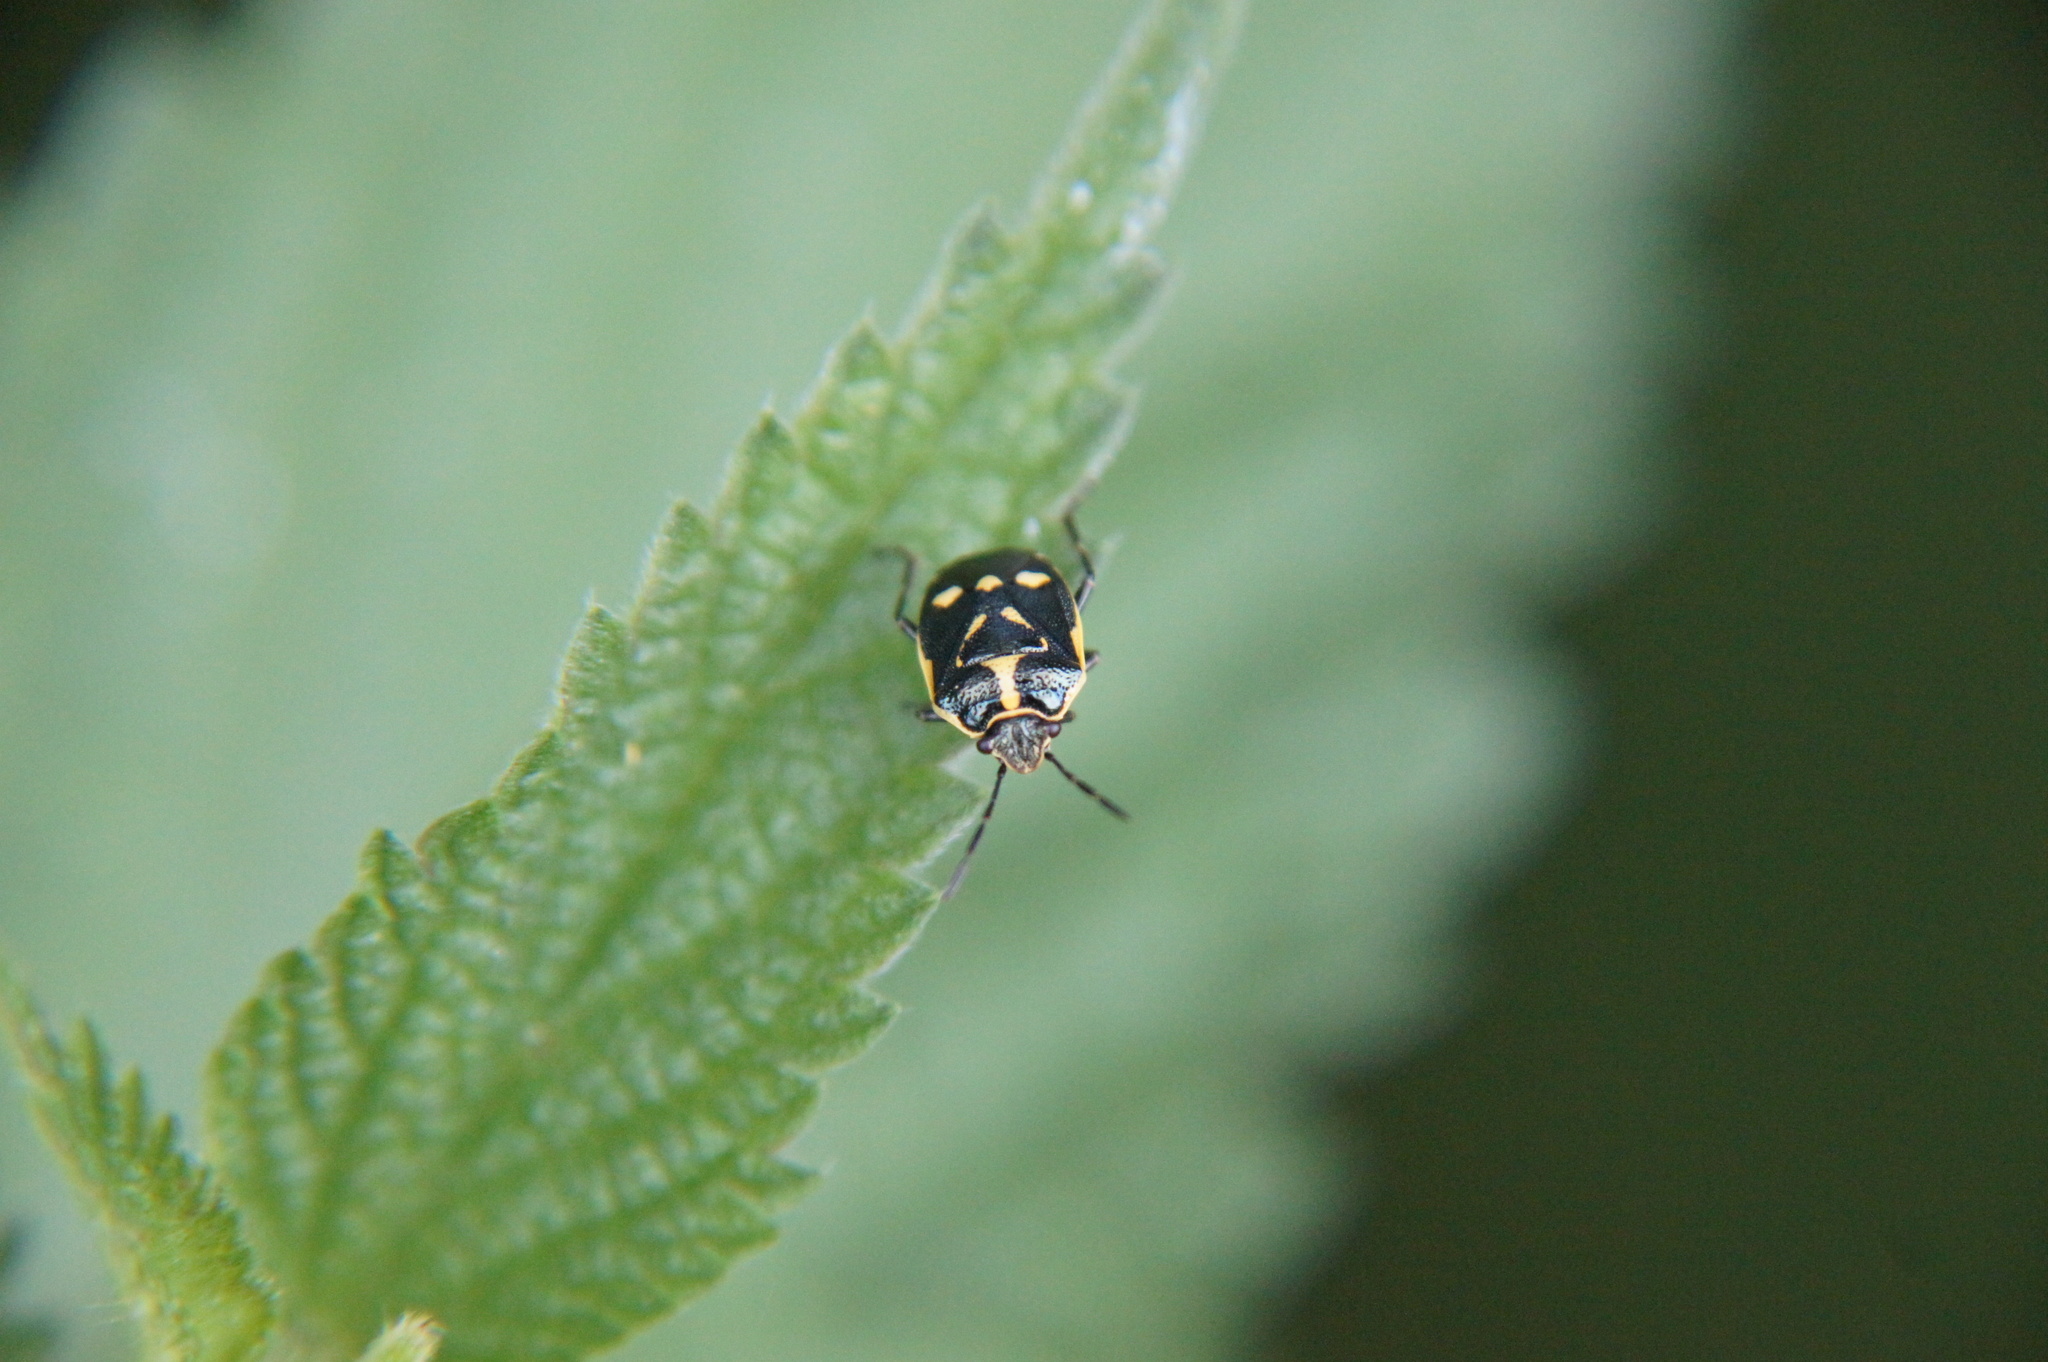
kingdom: Animalia
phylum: Arthropoda
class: Insecta
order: Hemiptera
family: Pentatomidae
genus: Eurydema
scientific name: Eurydema oleracea
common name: Cabbage bug
